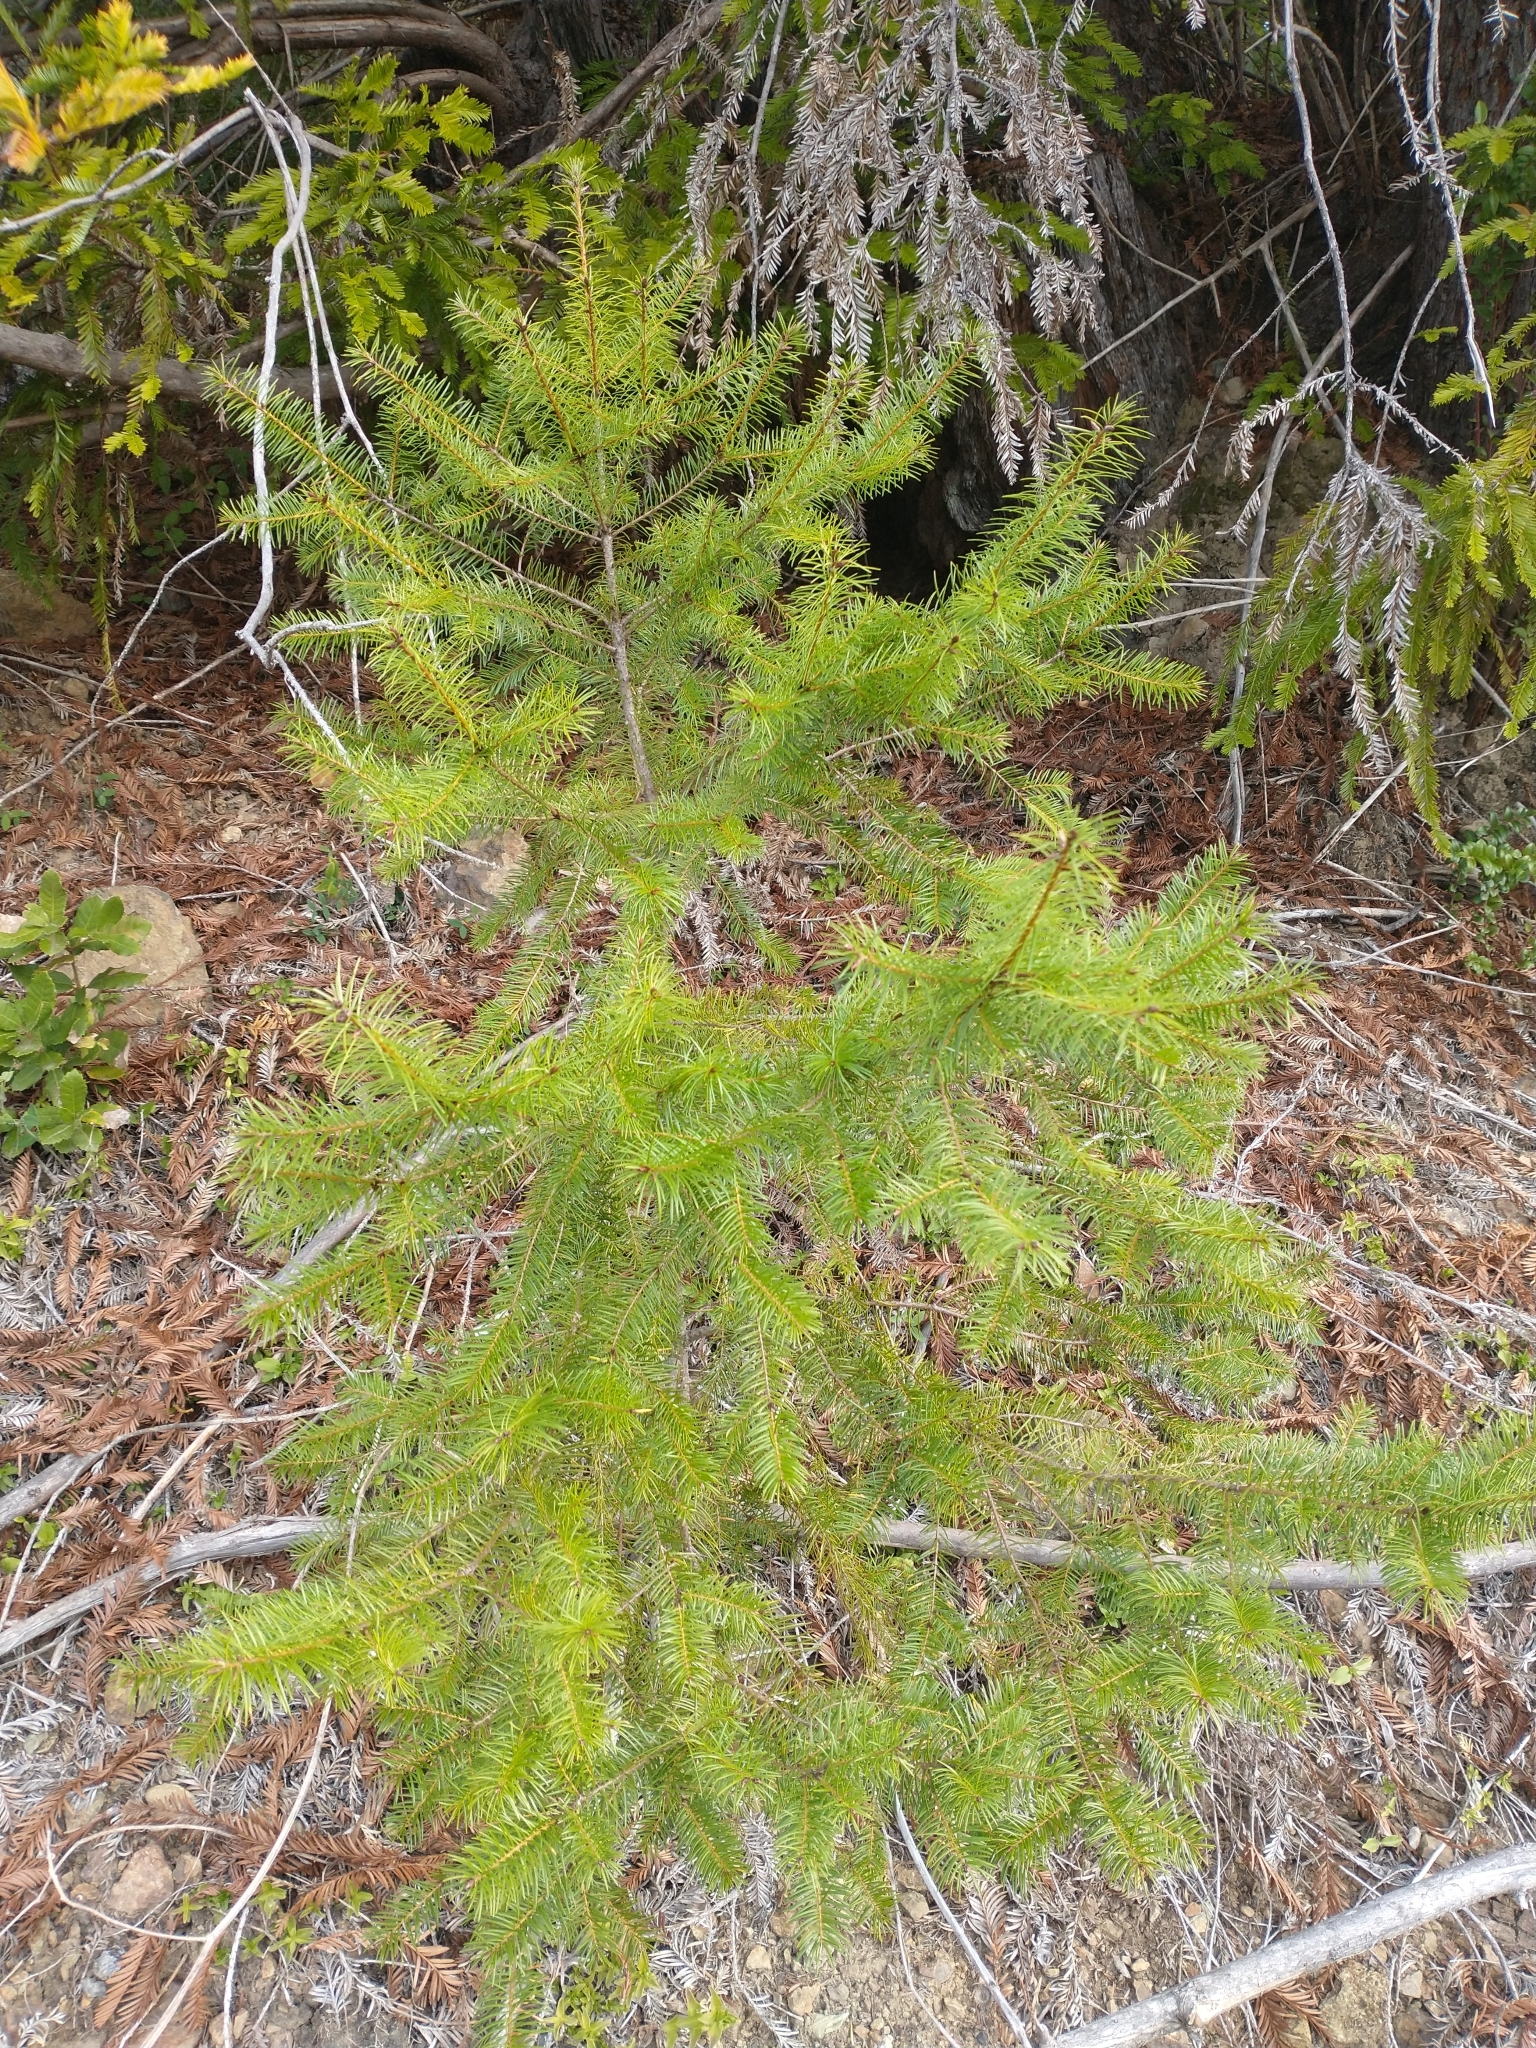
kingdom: Plantae
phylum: Tracheophyta
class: Pinopsida
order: Pinales
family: Pinaceae
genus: Pseudotsuga
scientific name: Pseudotsuga menziesii
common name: Douglas fir
